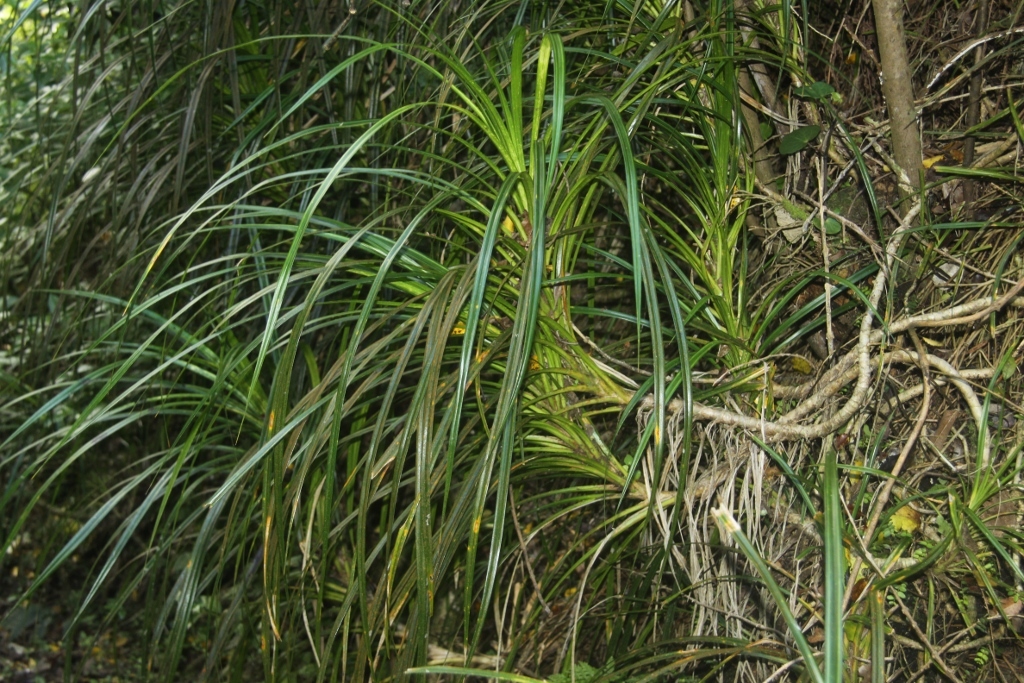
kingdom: Plantae
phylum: Tracheophyta
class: Liliopsida
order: Pandanales
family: Pandanaceae
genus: Freycinetia
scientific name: Freycinetia banksii
